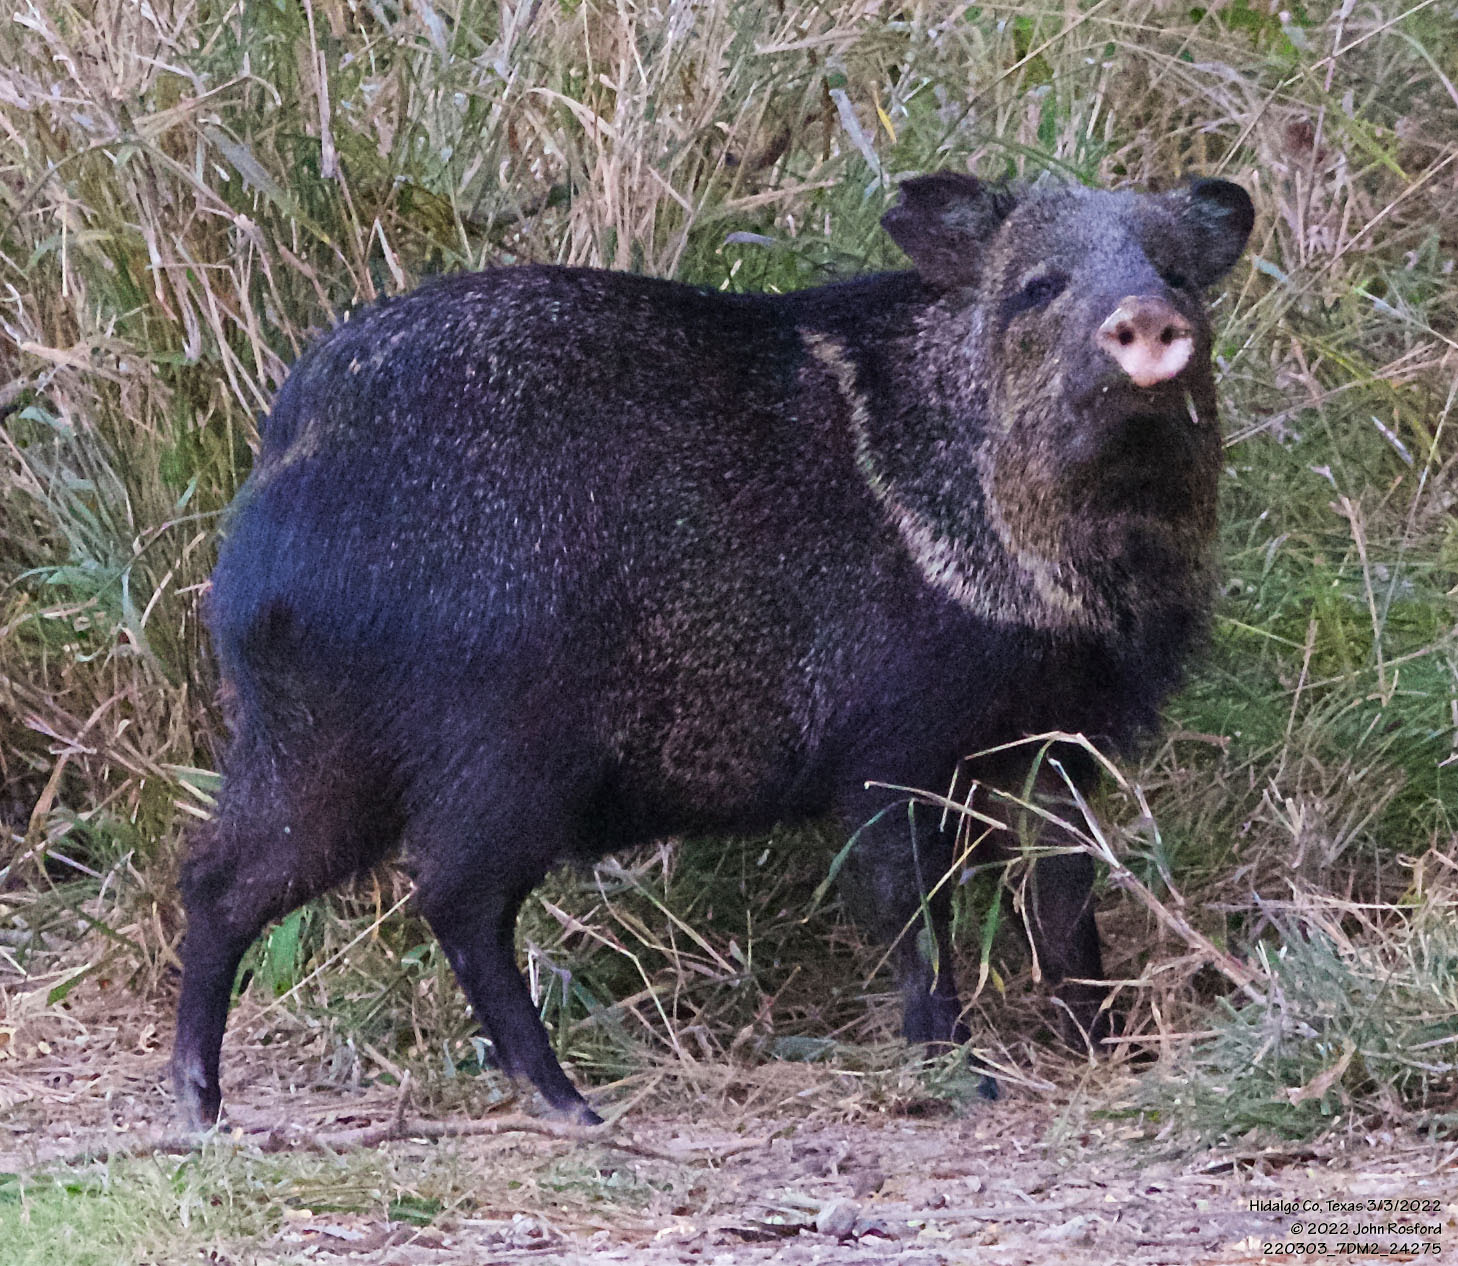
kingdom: Animalia
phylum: Chordata
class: Mammalia
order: Artiodactyla
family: Tayassuidae
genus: Pecari
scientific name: Pecari tajacu
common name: Collared peccary
